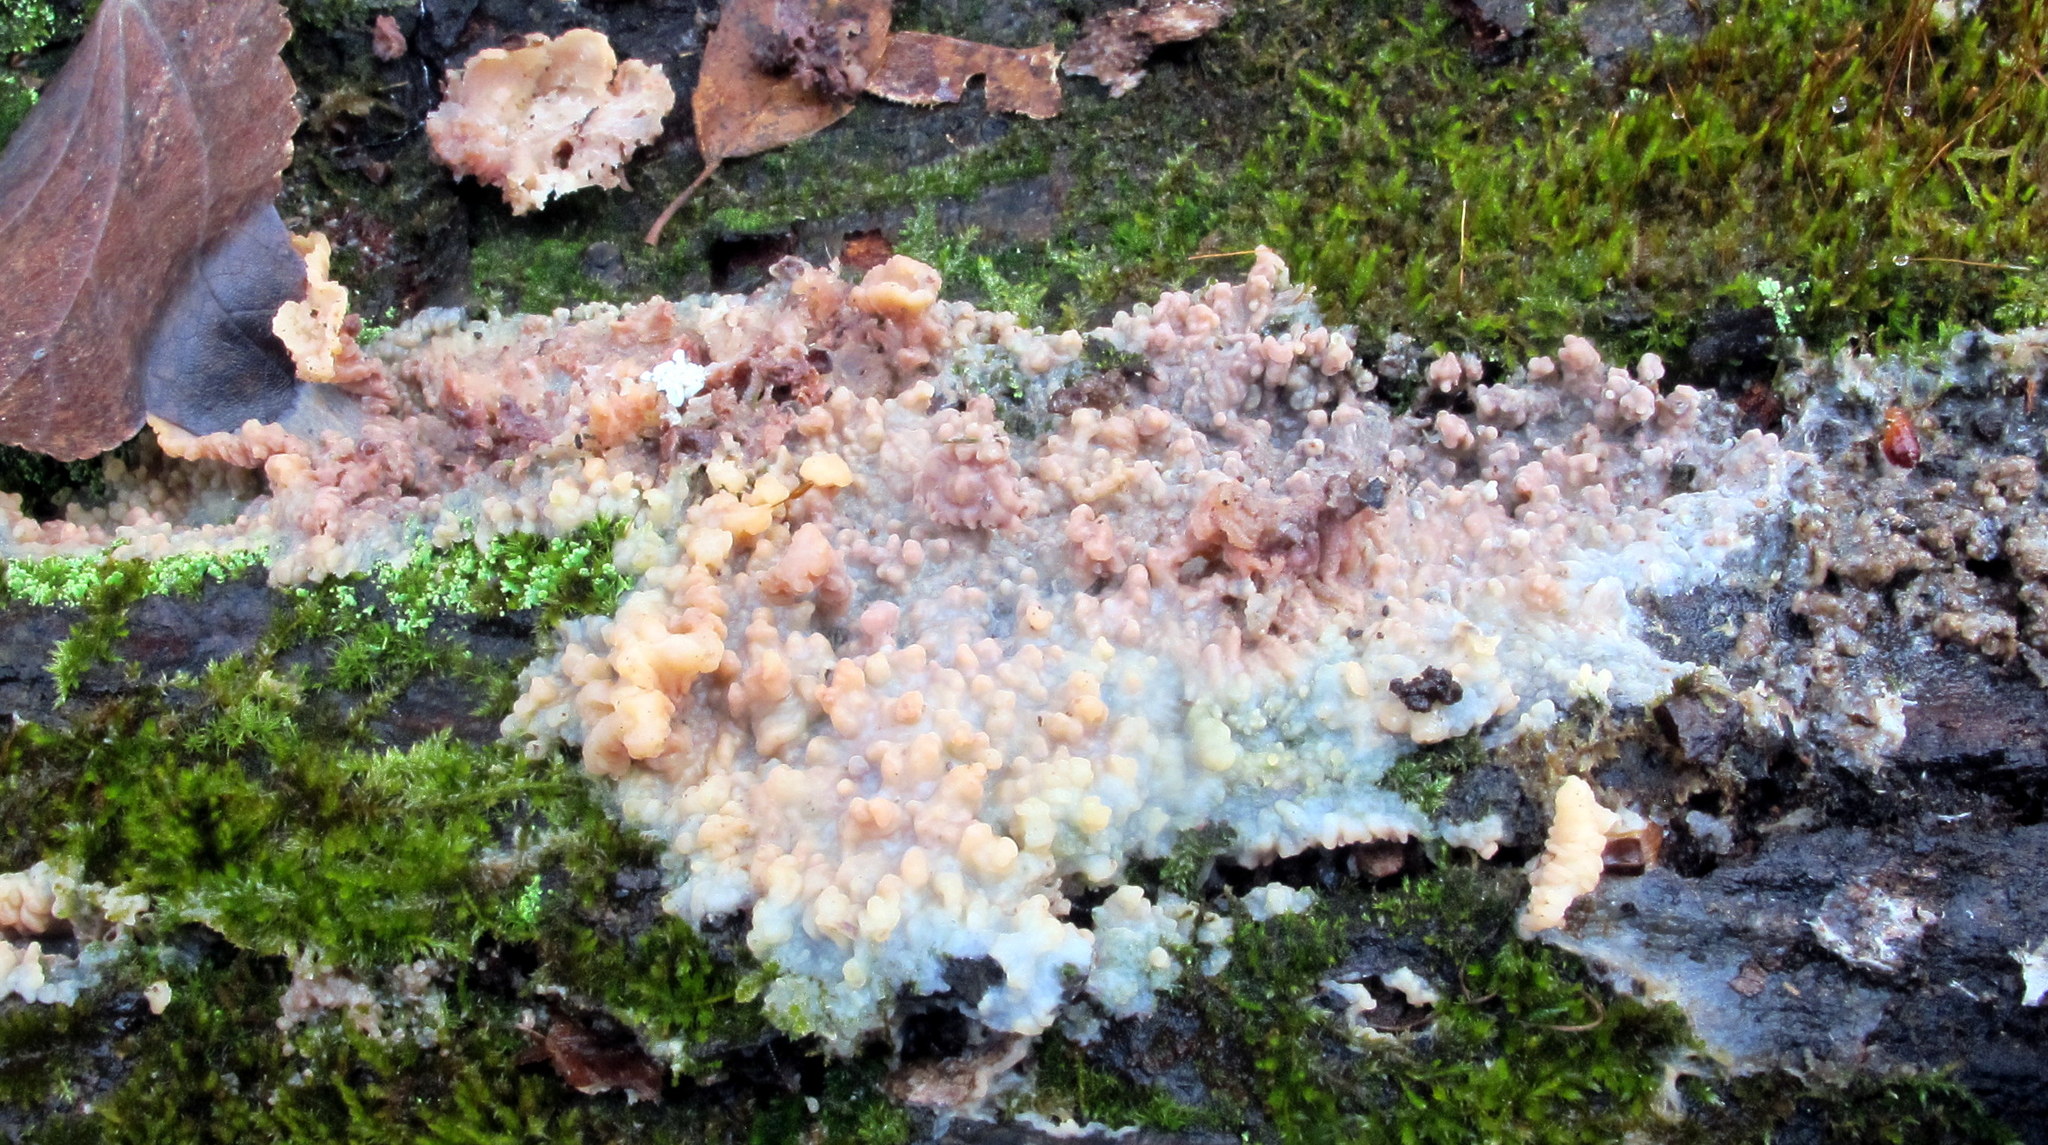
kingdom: Fungi
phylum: Basidiomycota
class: Agaricomycetes
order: Polyporales
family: Meruliaceae
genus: Phlebia
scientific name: Phlebia tremellosa
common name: Jelly rot
